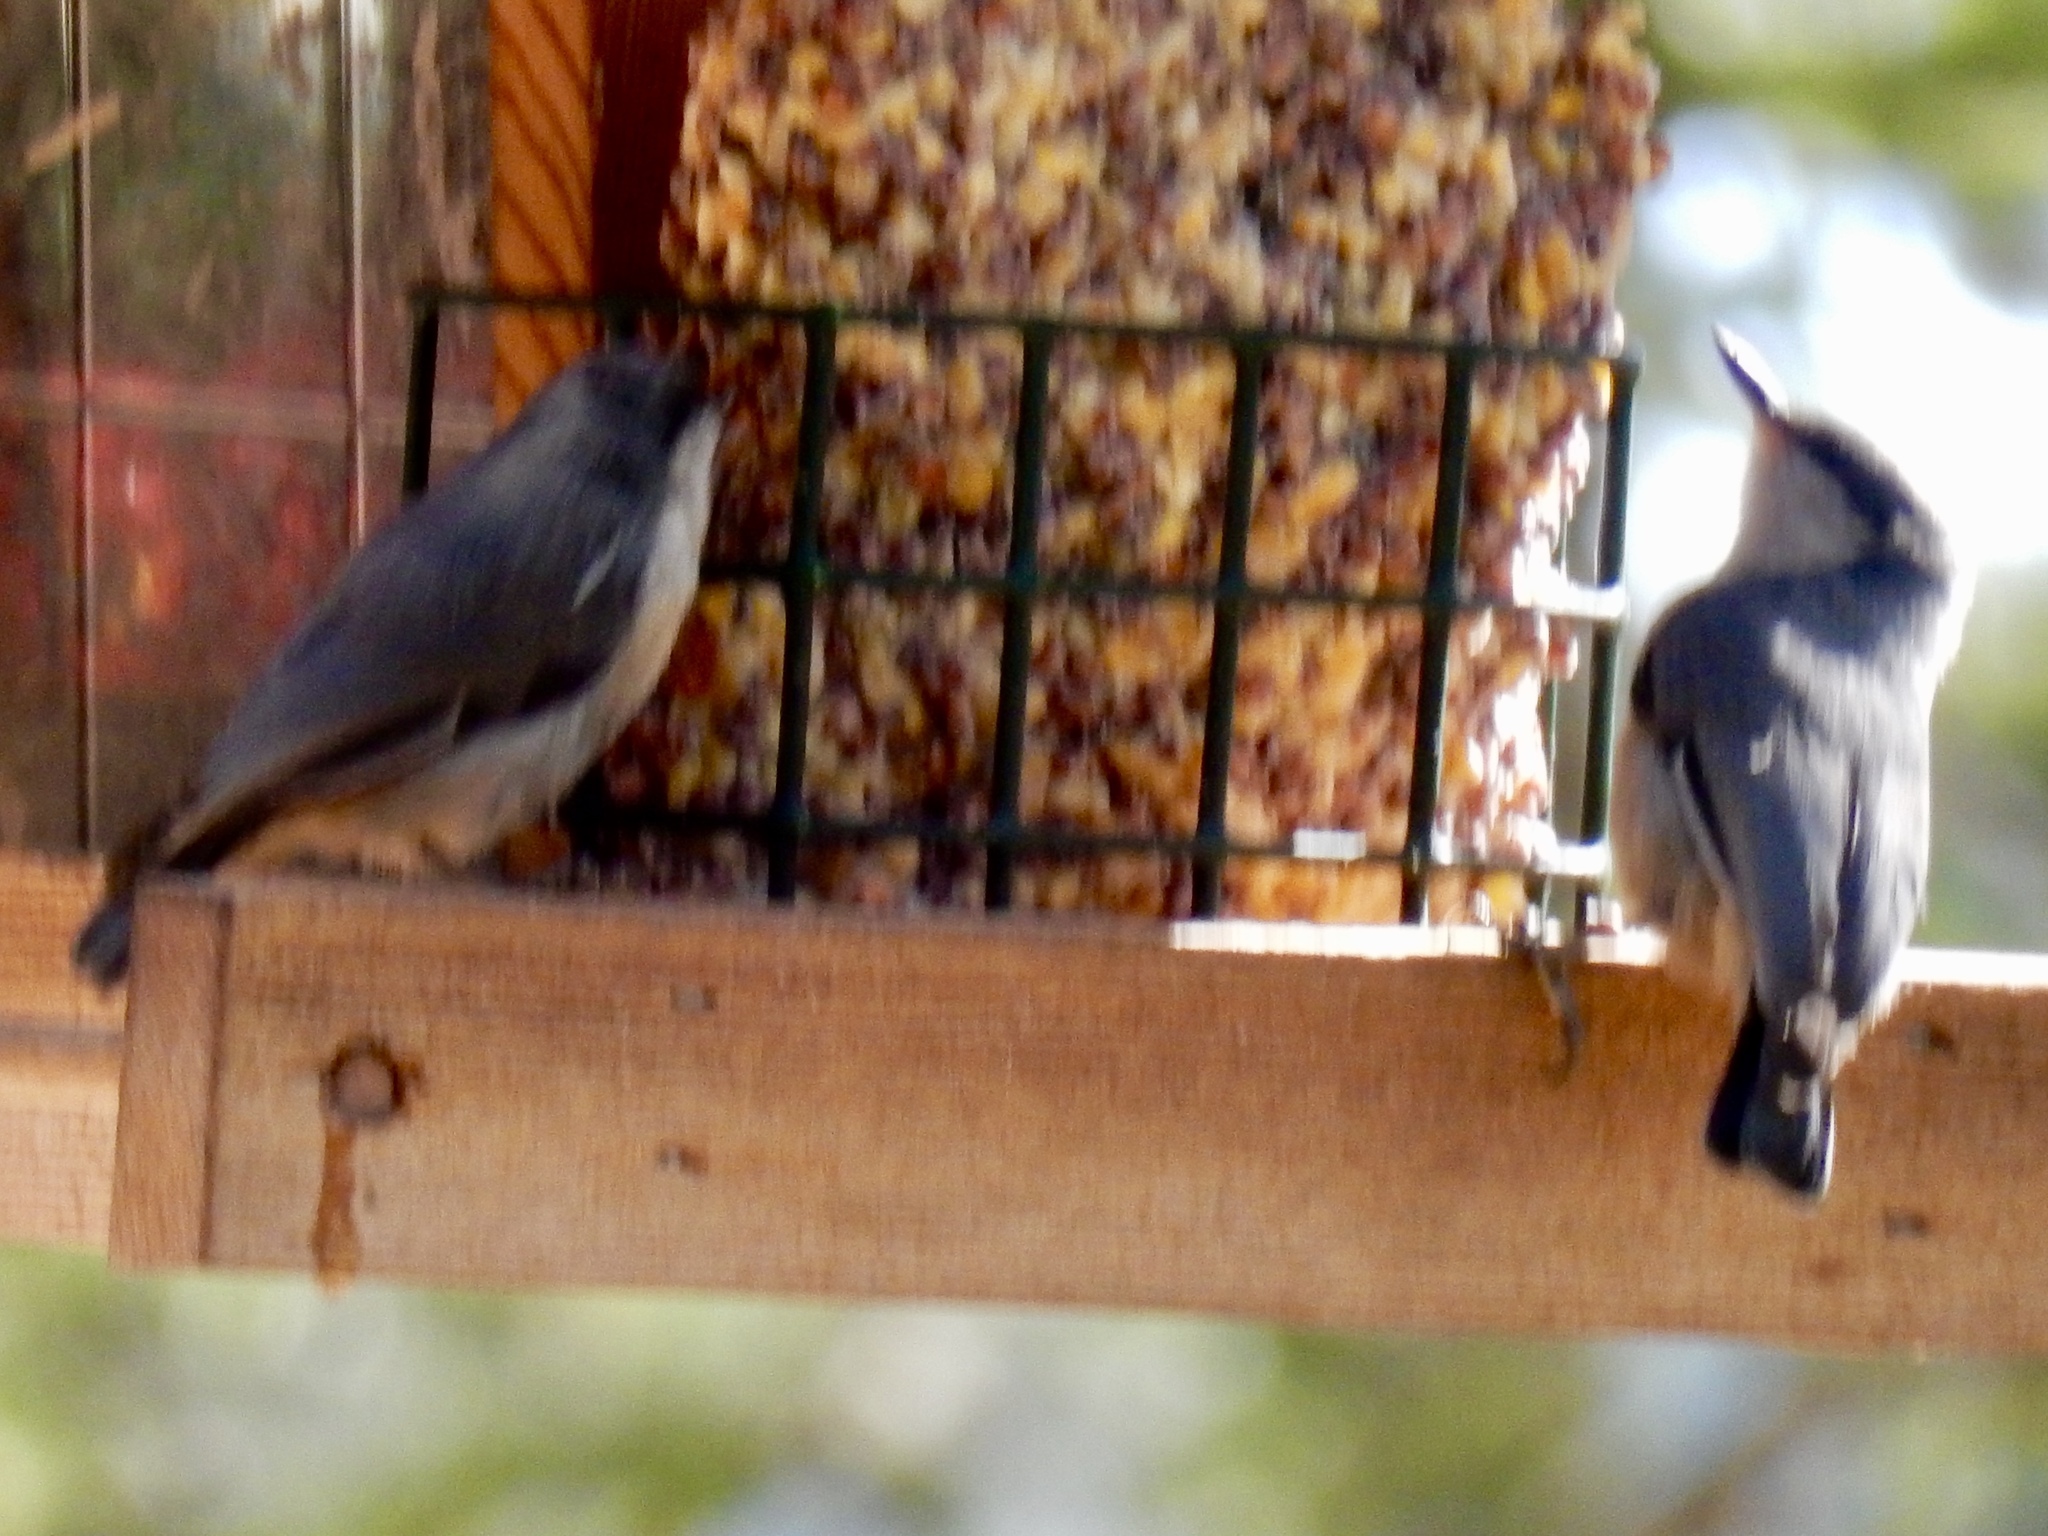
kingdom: Animalia
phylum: Chordata
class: Aves
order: Passeriformes
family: Sittidae
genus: Sitta
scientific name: Sitta pygmaea
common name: Pygmy nuthatch
